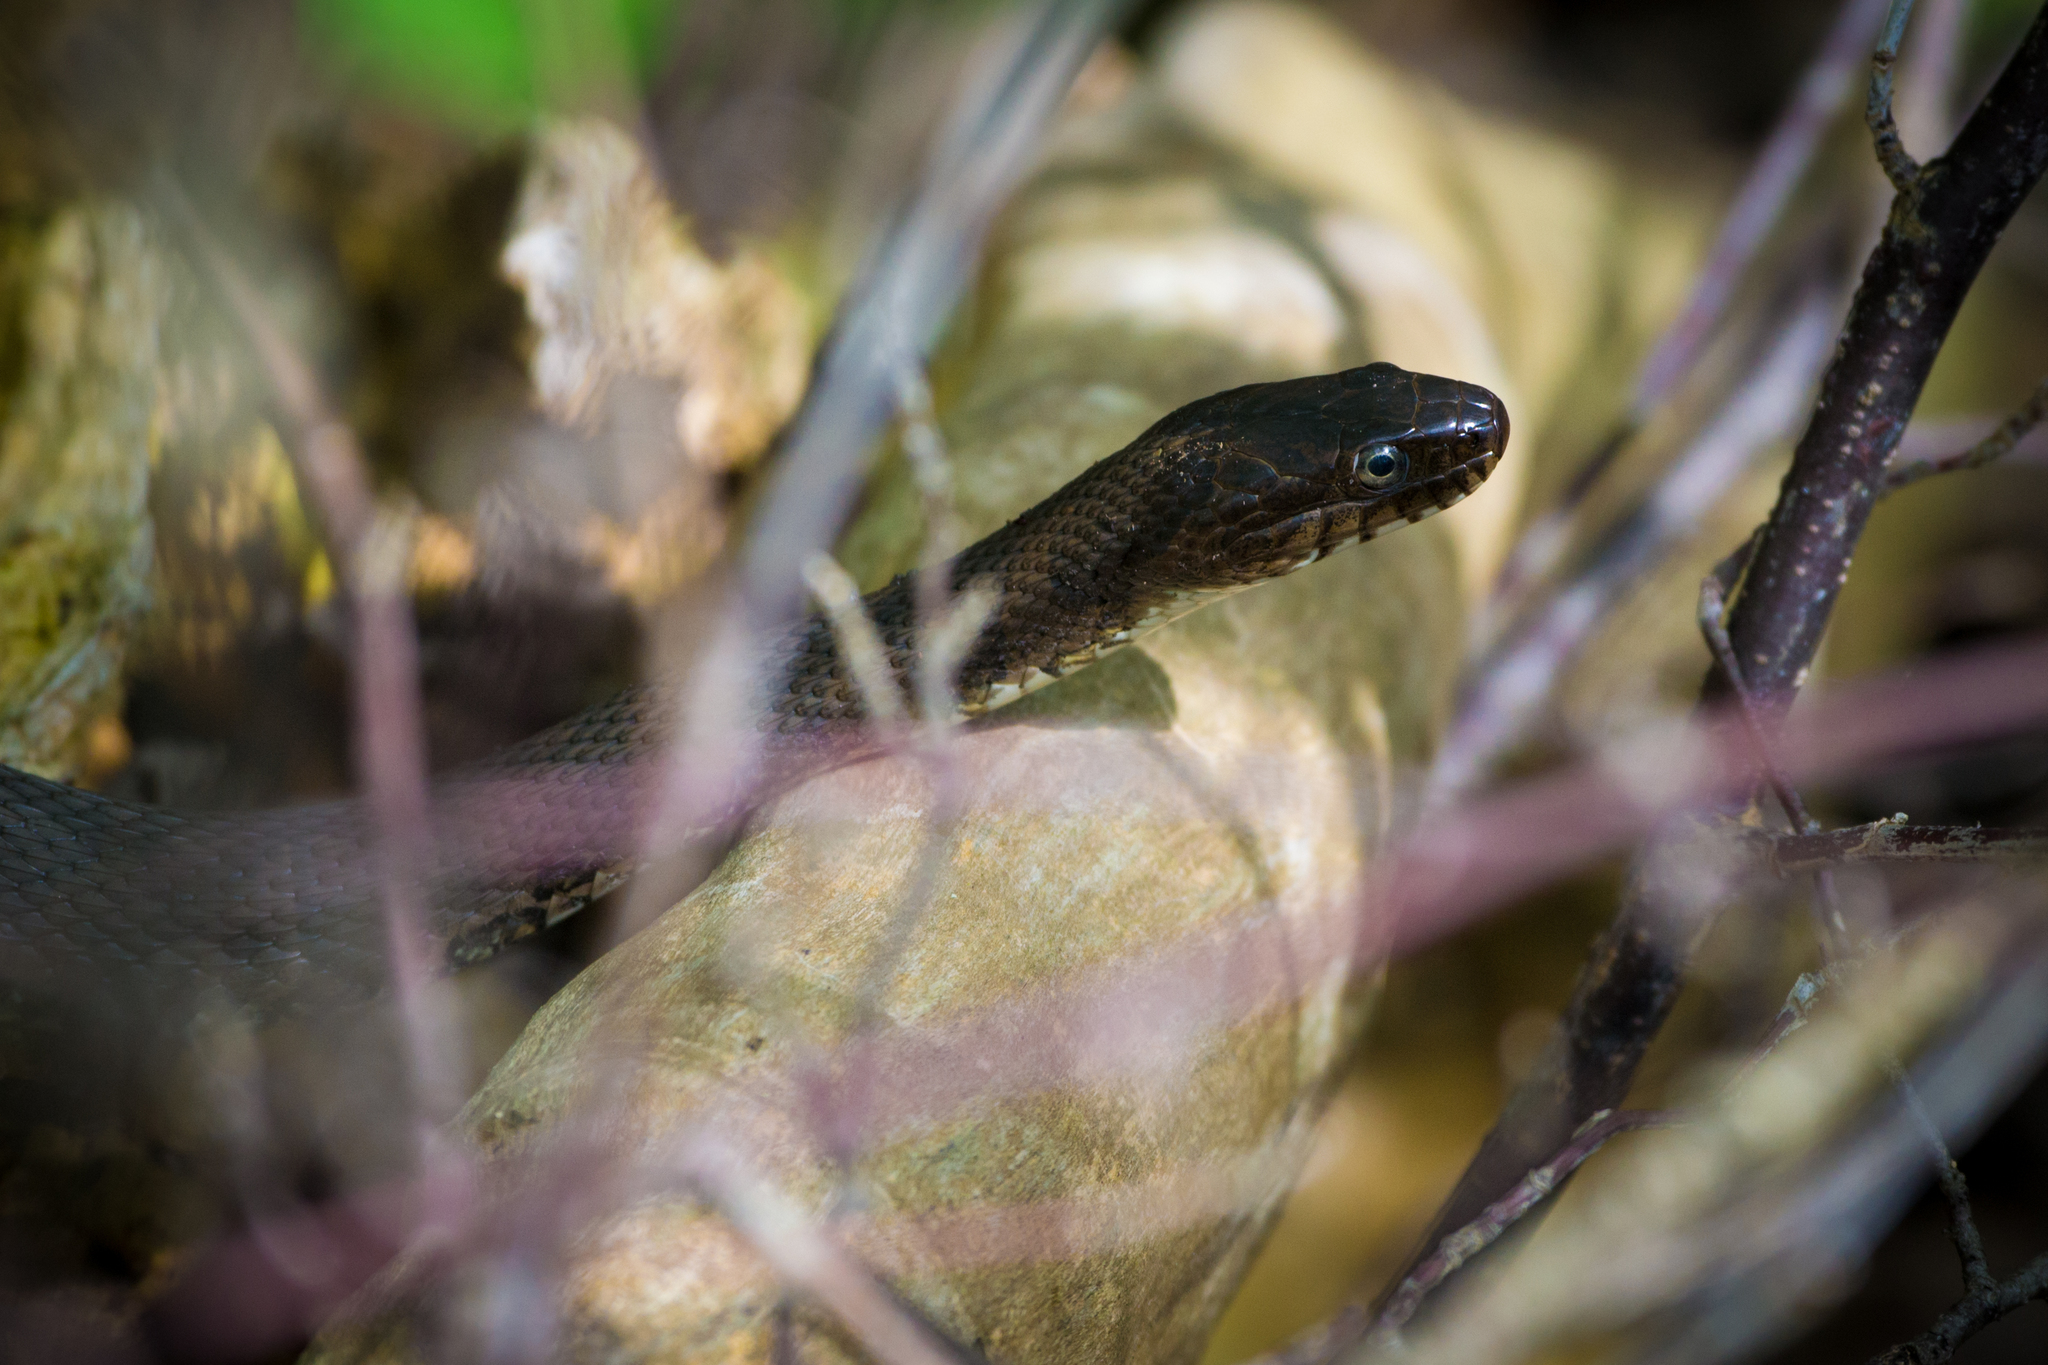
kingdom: Animalia
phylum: Chordata
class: Squamata
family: Colubridae
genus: Nerodia
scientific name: Nerodia sipedon
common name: Northern water snake
